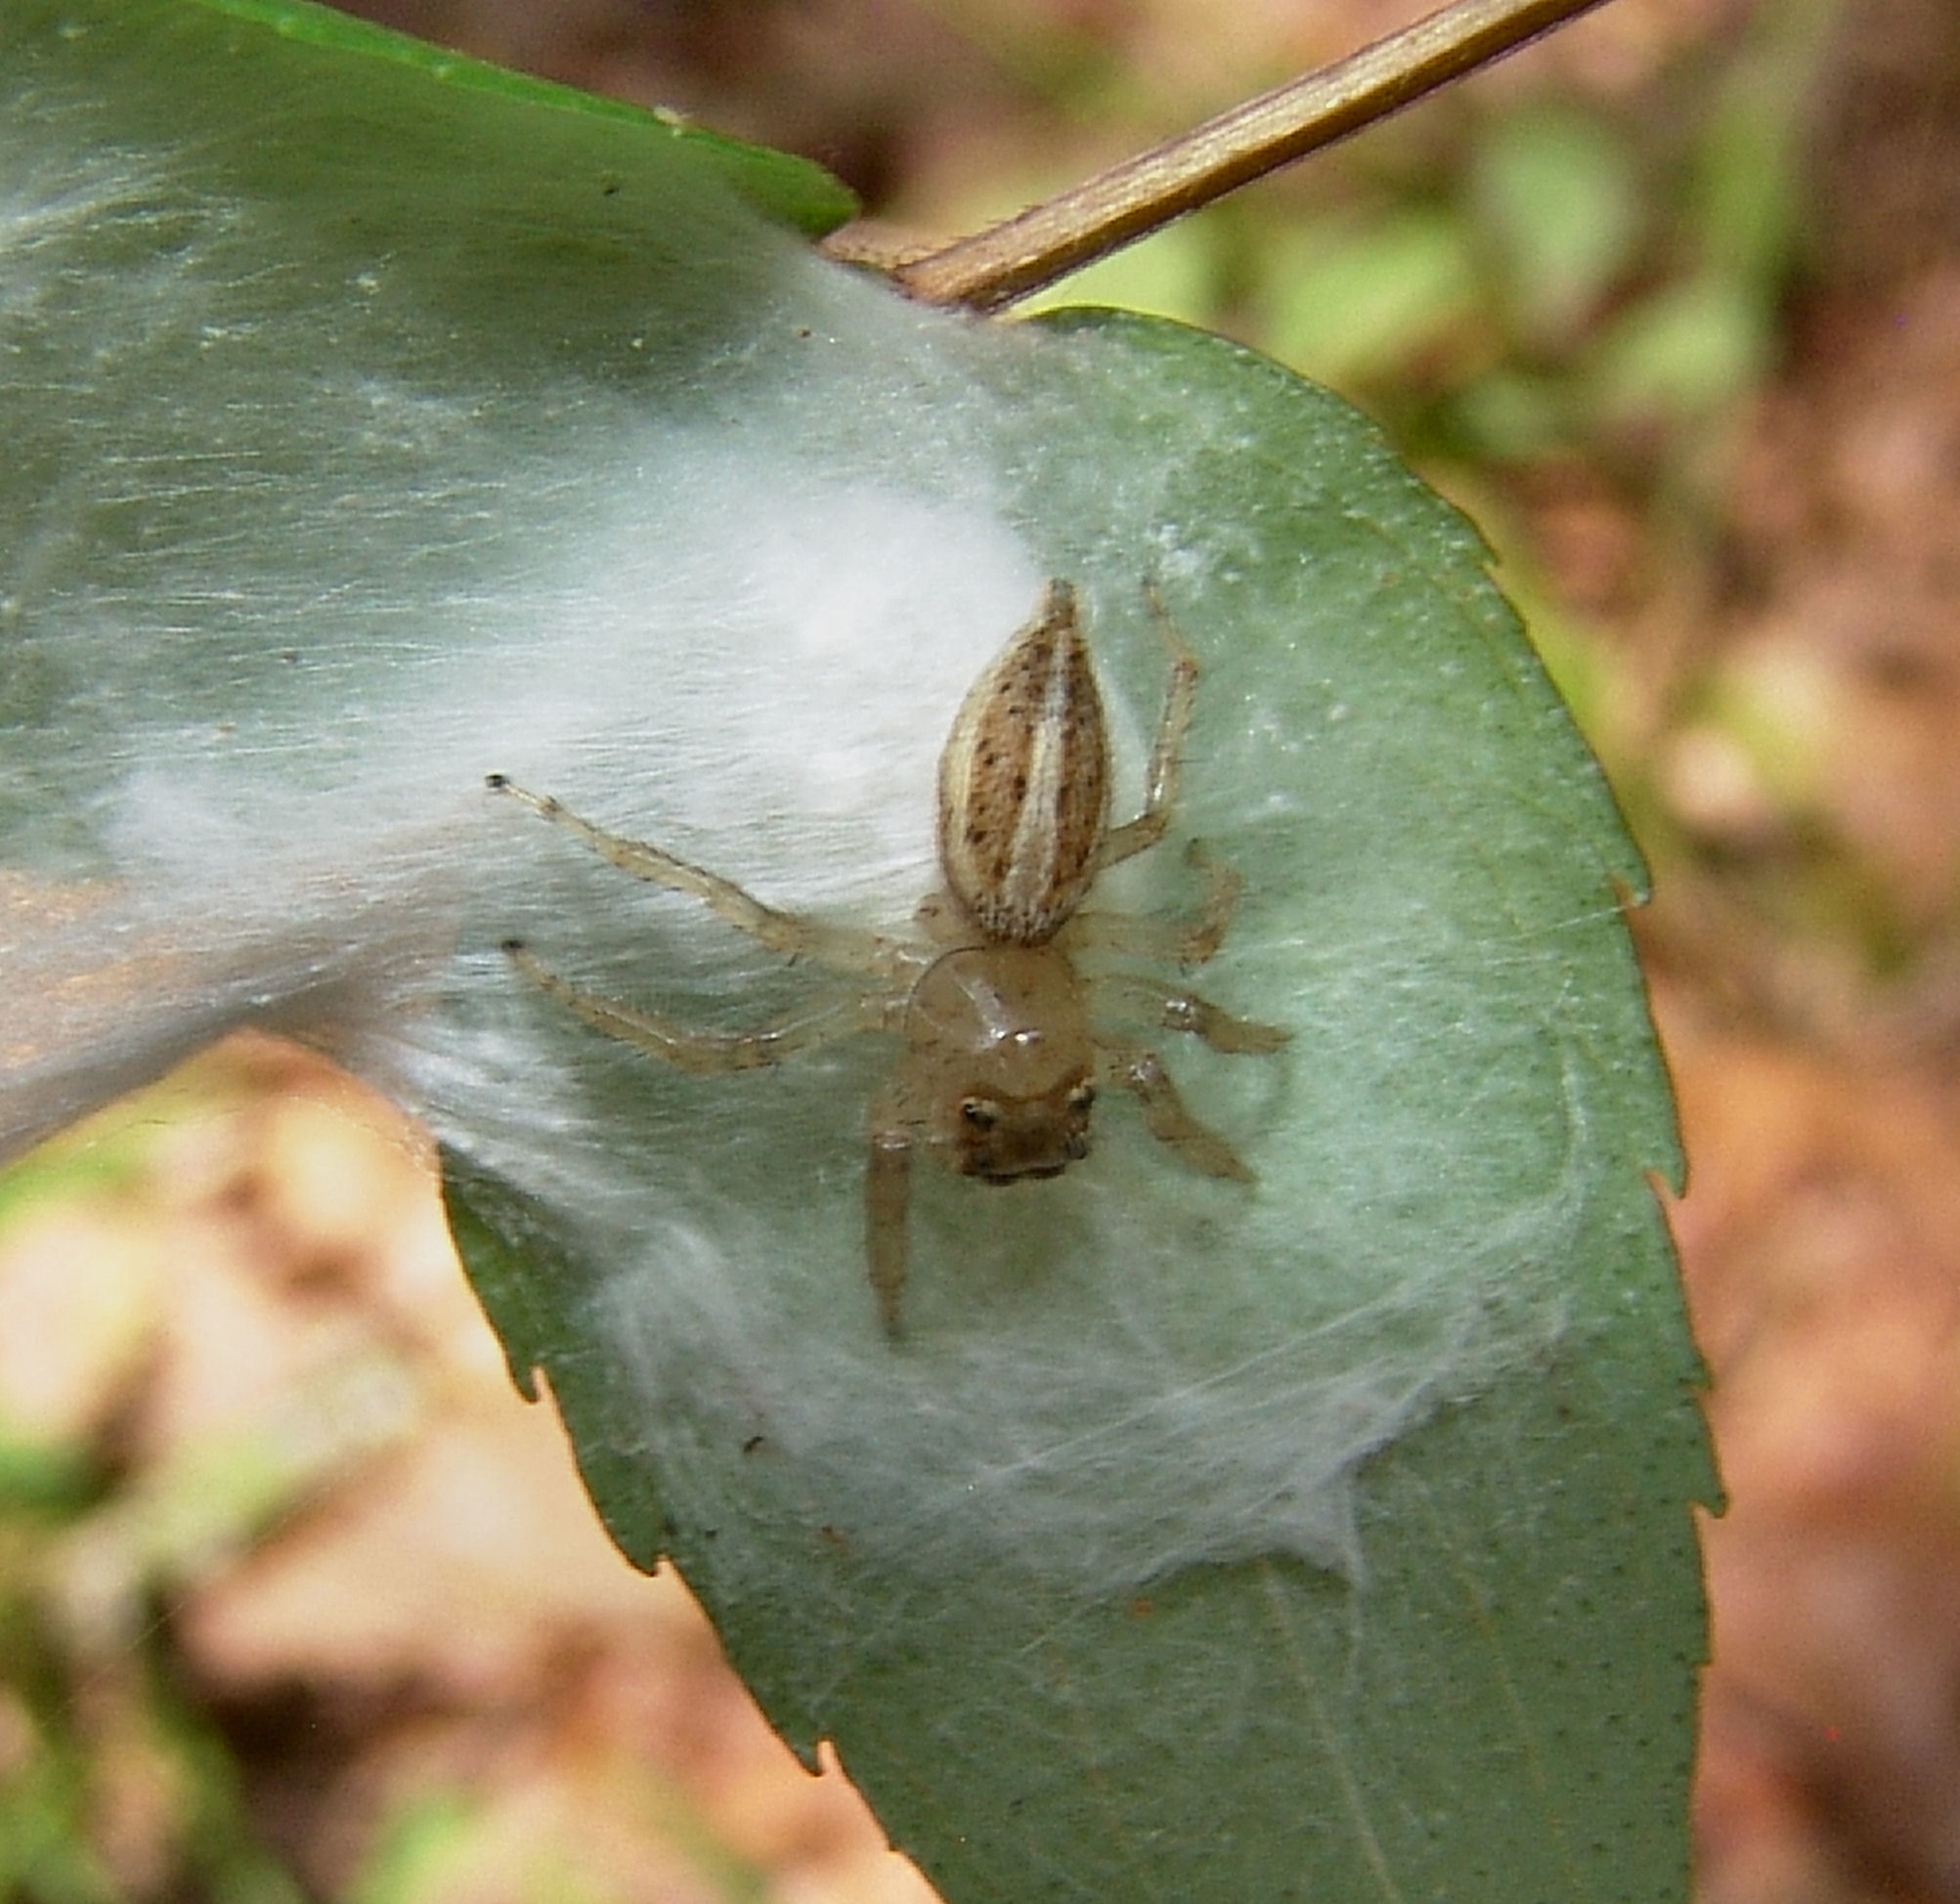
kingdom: Animalia
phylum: Arthropoda
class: Arachnida
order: Araneae
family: Salticidae
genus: Colonus
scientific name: Colonus sylvanus
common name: Jumping spiders
